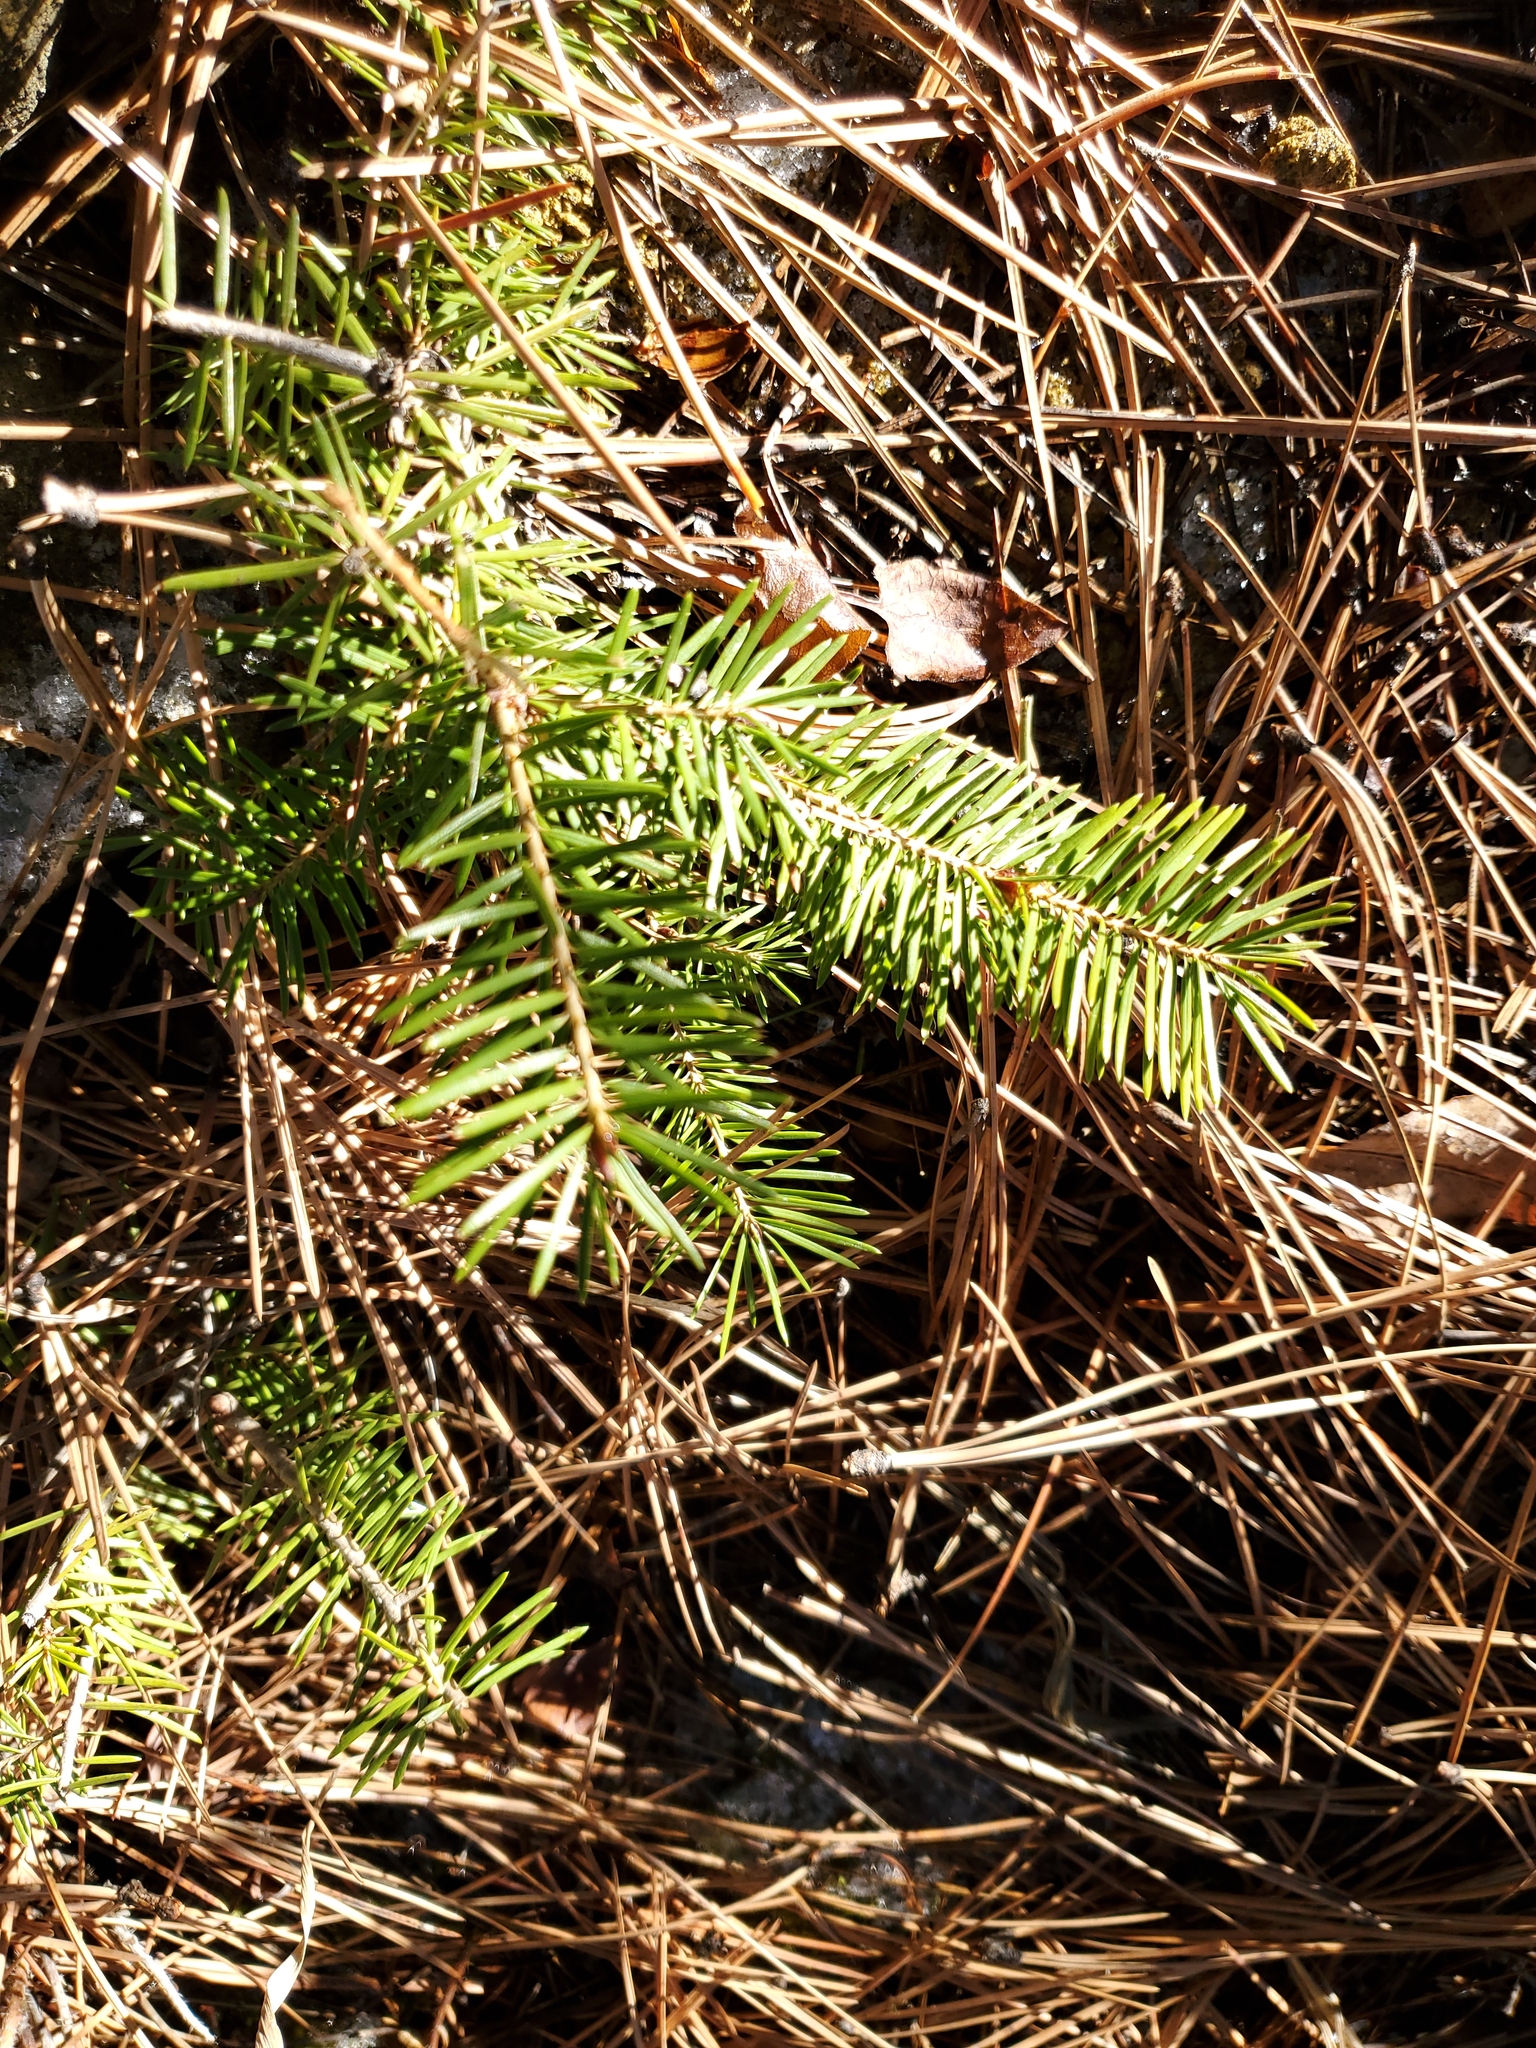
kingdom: Plantae
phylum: Tracheophyta
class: Pinopsida
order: Pinales
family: Pinaceae
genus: Pseudotsuga
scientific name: Pseudotsuga menziesii
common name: Douglas fir
